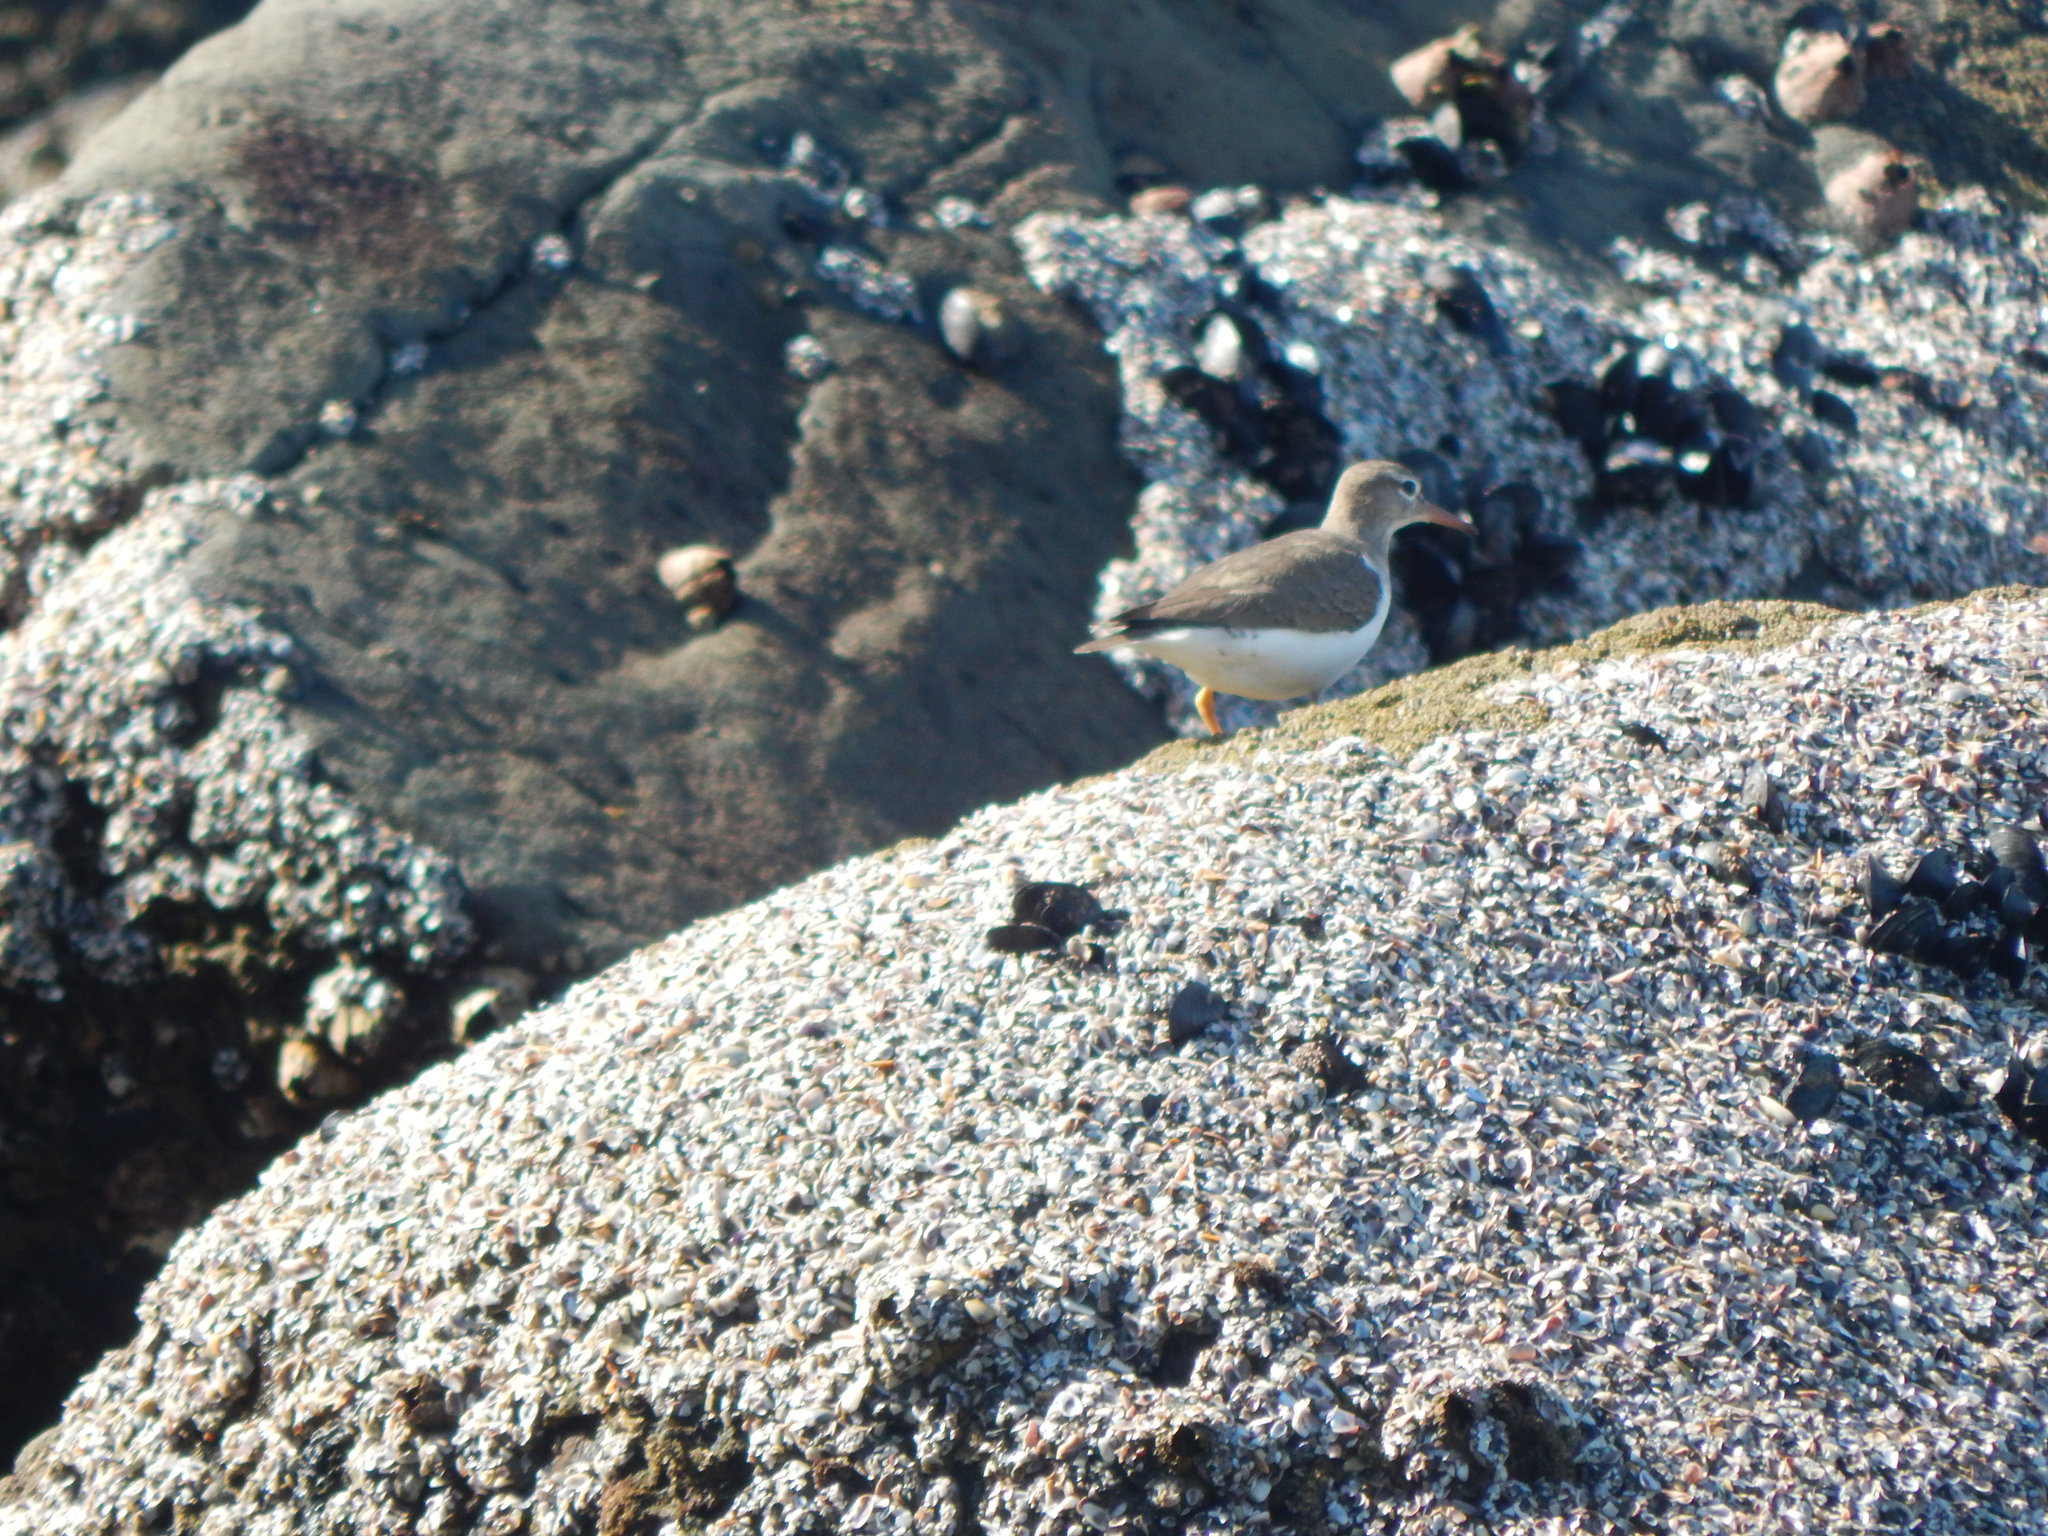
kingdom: Animalia
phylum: Chordata
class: Aves
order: Charadriiformes
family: Scolopacidae
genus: Actitis
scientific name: Actitis macularius
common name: Spotted sandpiper
